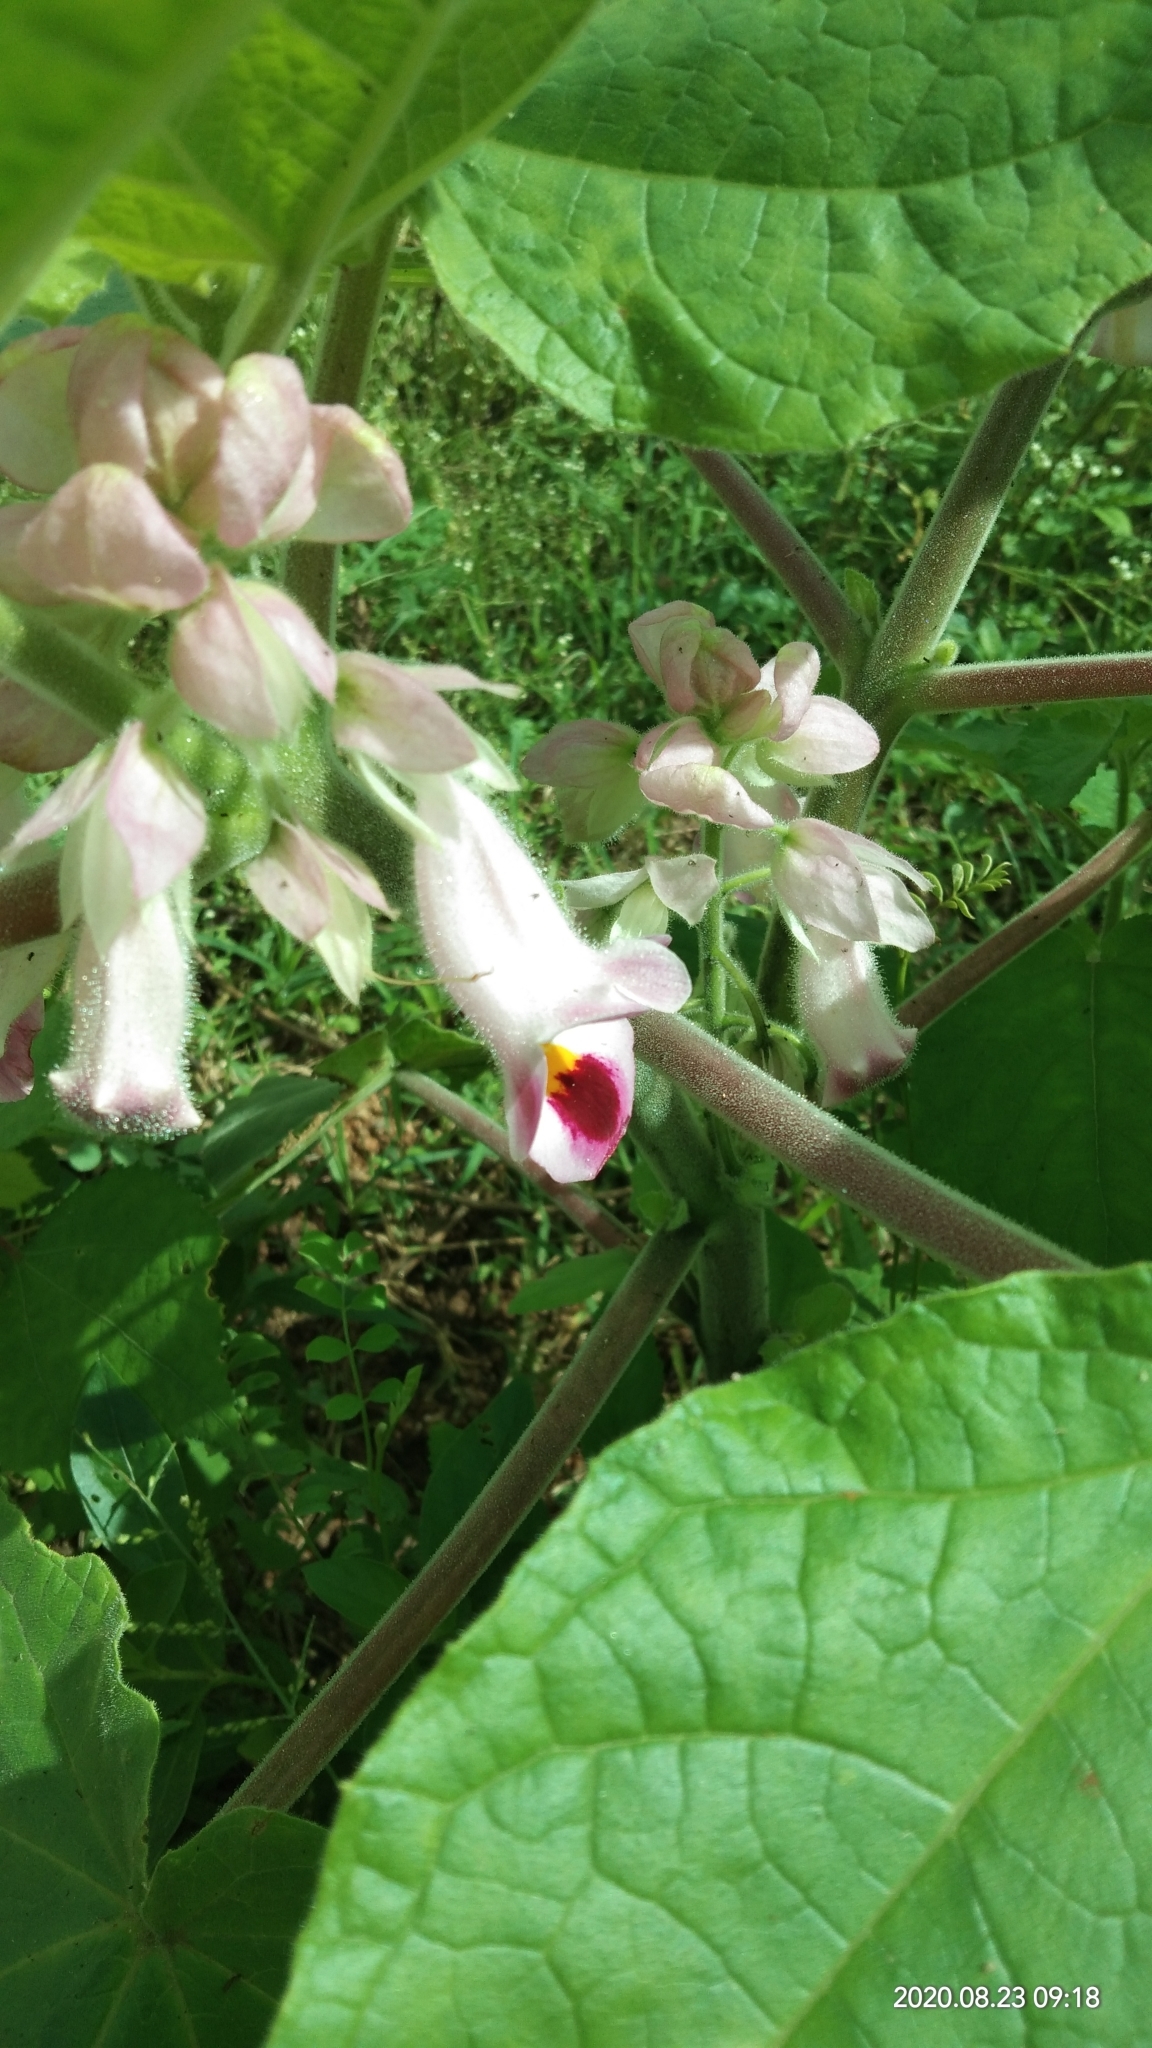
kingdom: Plantae
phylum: Tracheophyta
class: Magnoliopsida
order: Lamiales
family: Martyniaceae
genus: Martynia
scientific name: Martynia annua
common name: Tiger's-claw
